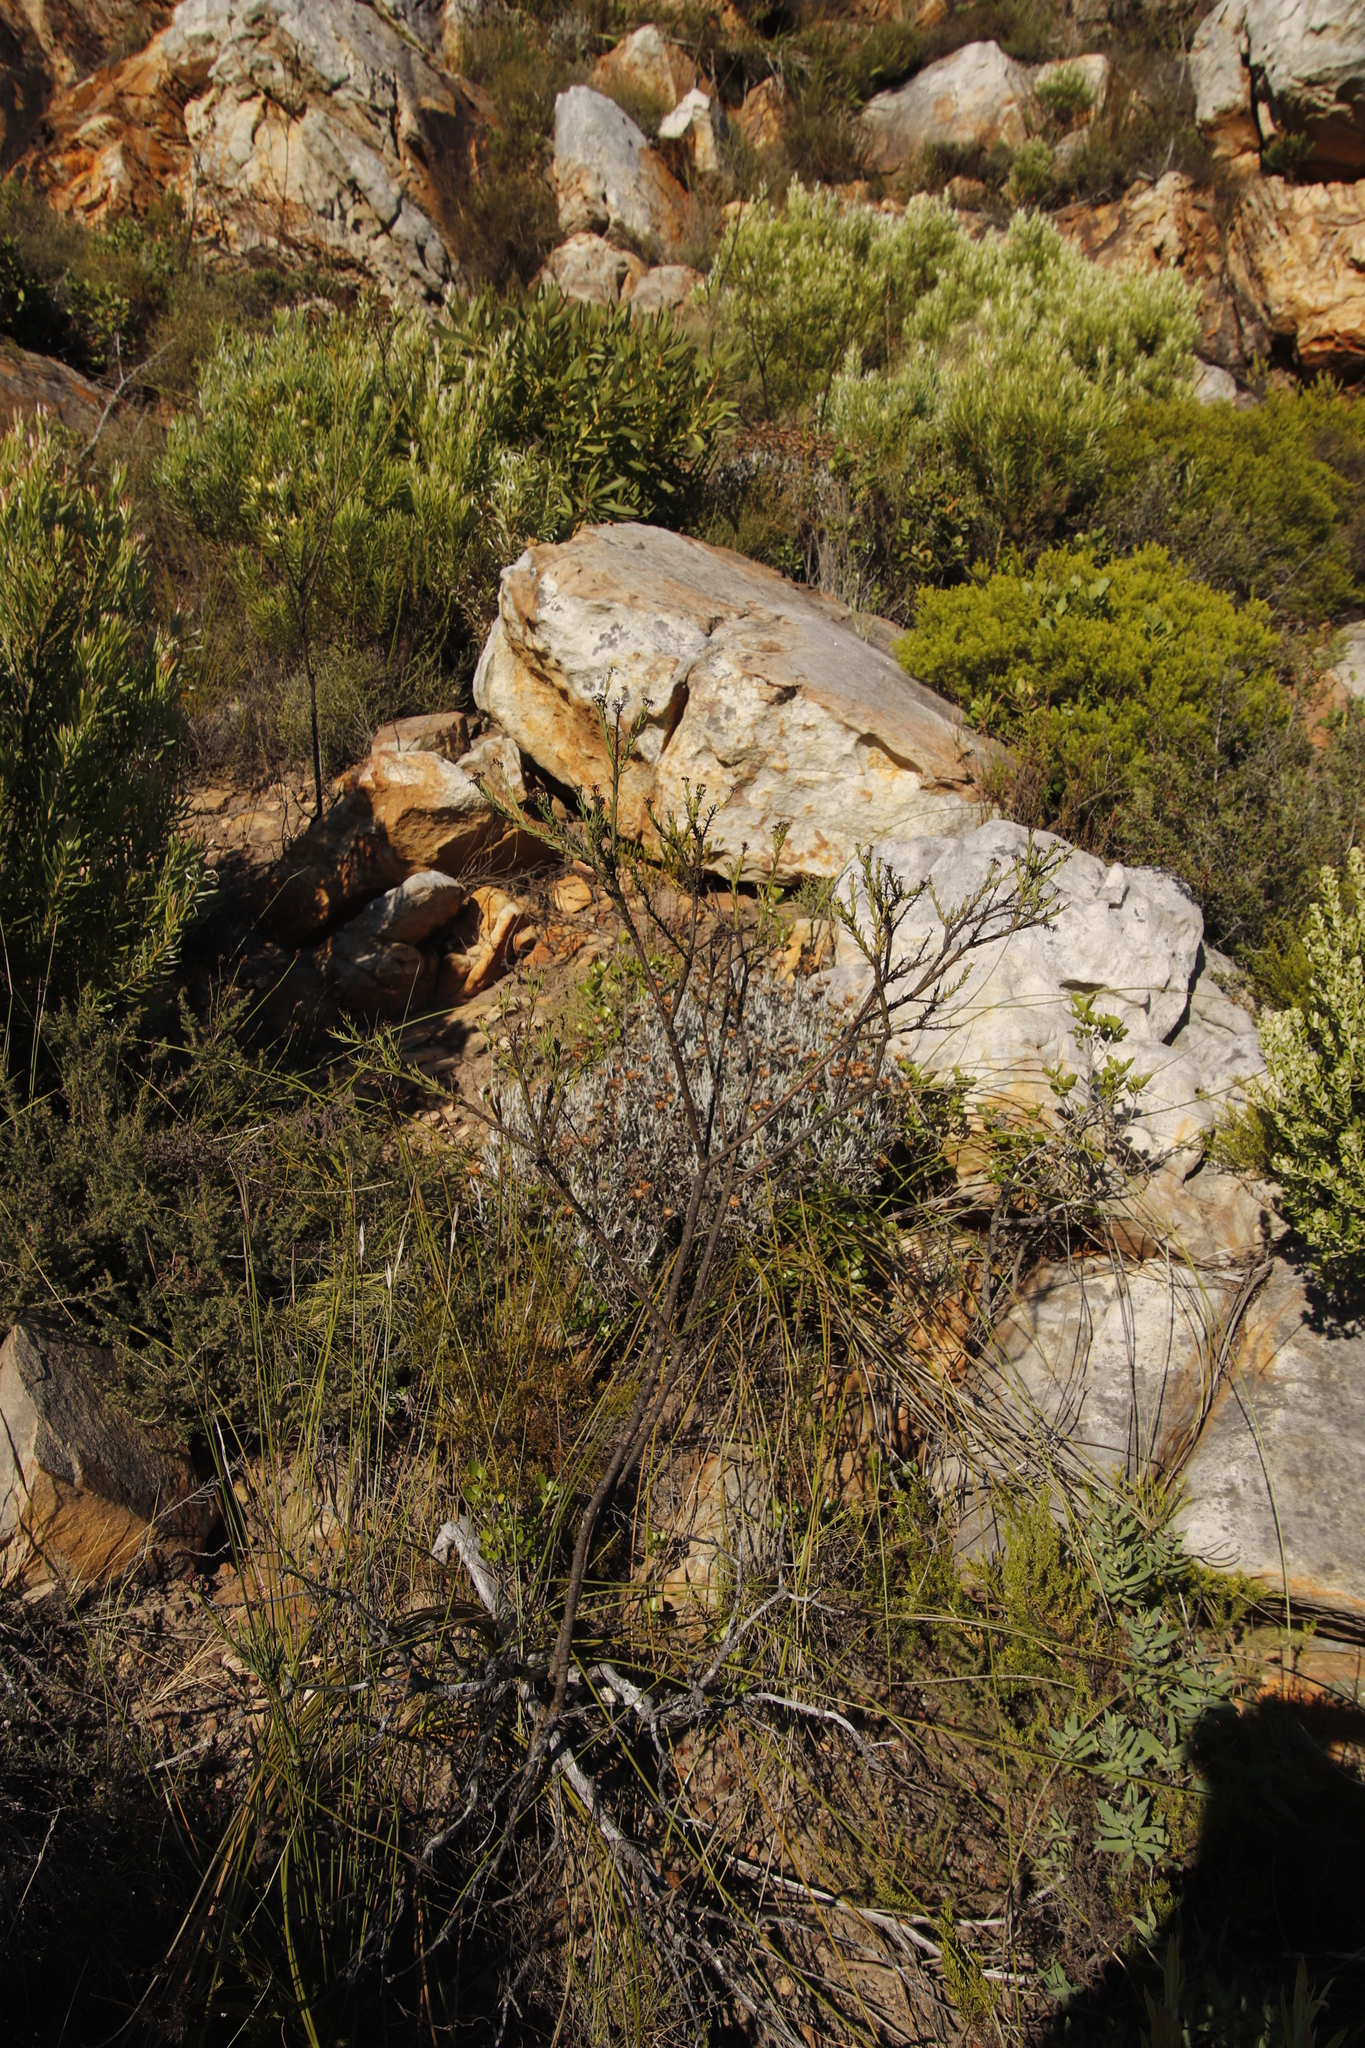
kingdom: Plantae
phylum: Tracheophyta
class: Magnoliopsida
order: Santalales
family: Thesiaceae
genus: Thesium
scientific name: Thesium strictum
